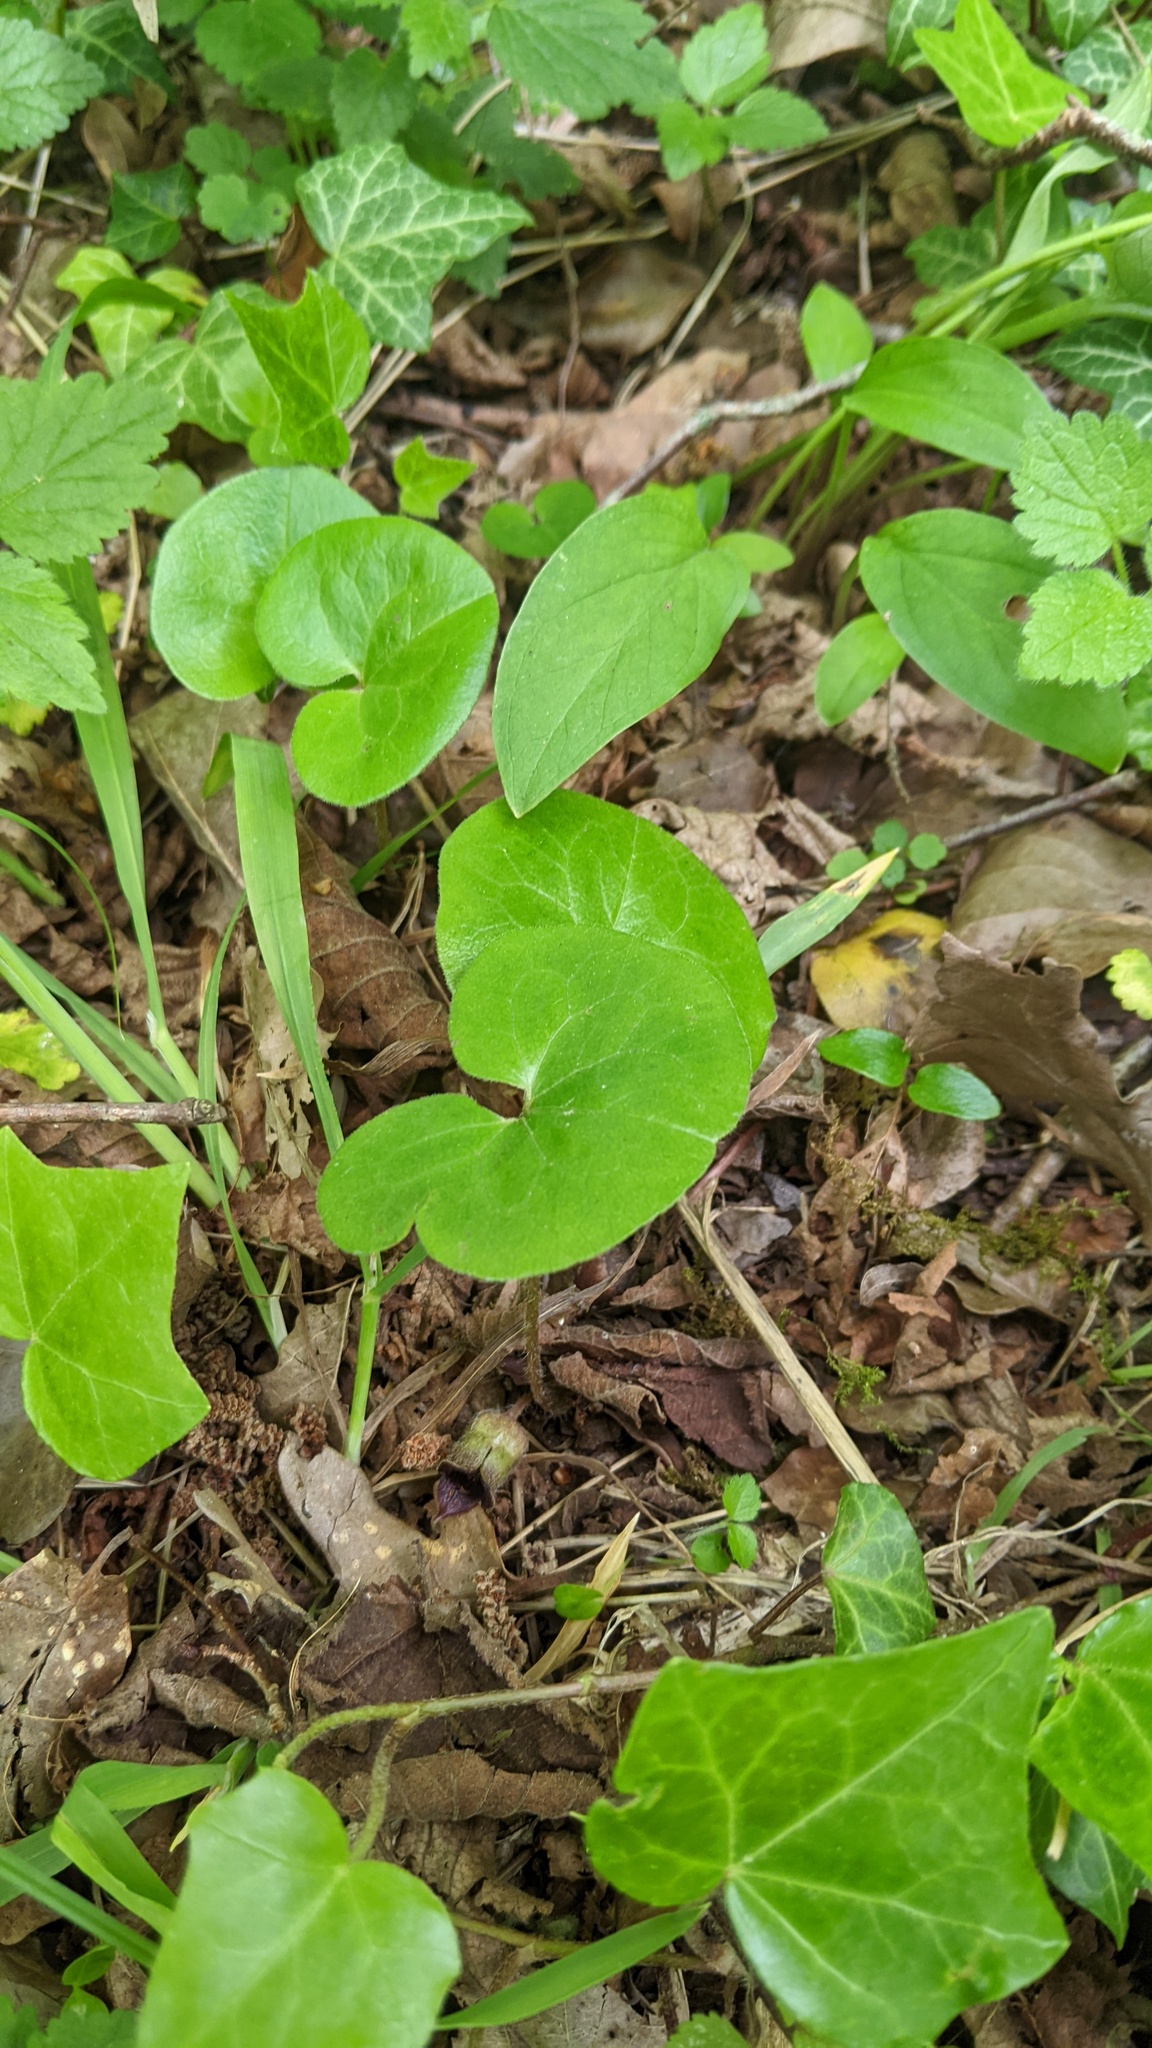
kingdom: Plantae
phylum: Tracheophyta
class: Magnoliopsida
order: Piperales
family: Aristolochiaceae
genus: Asarum
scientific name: Asarum europaeum
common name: Asarabacca
